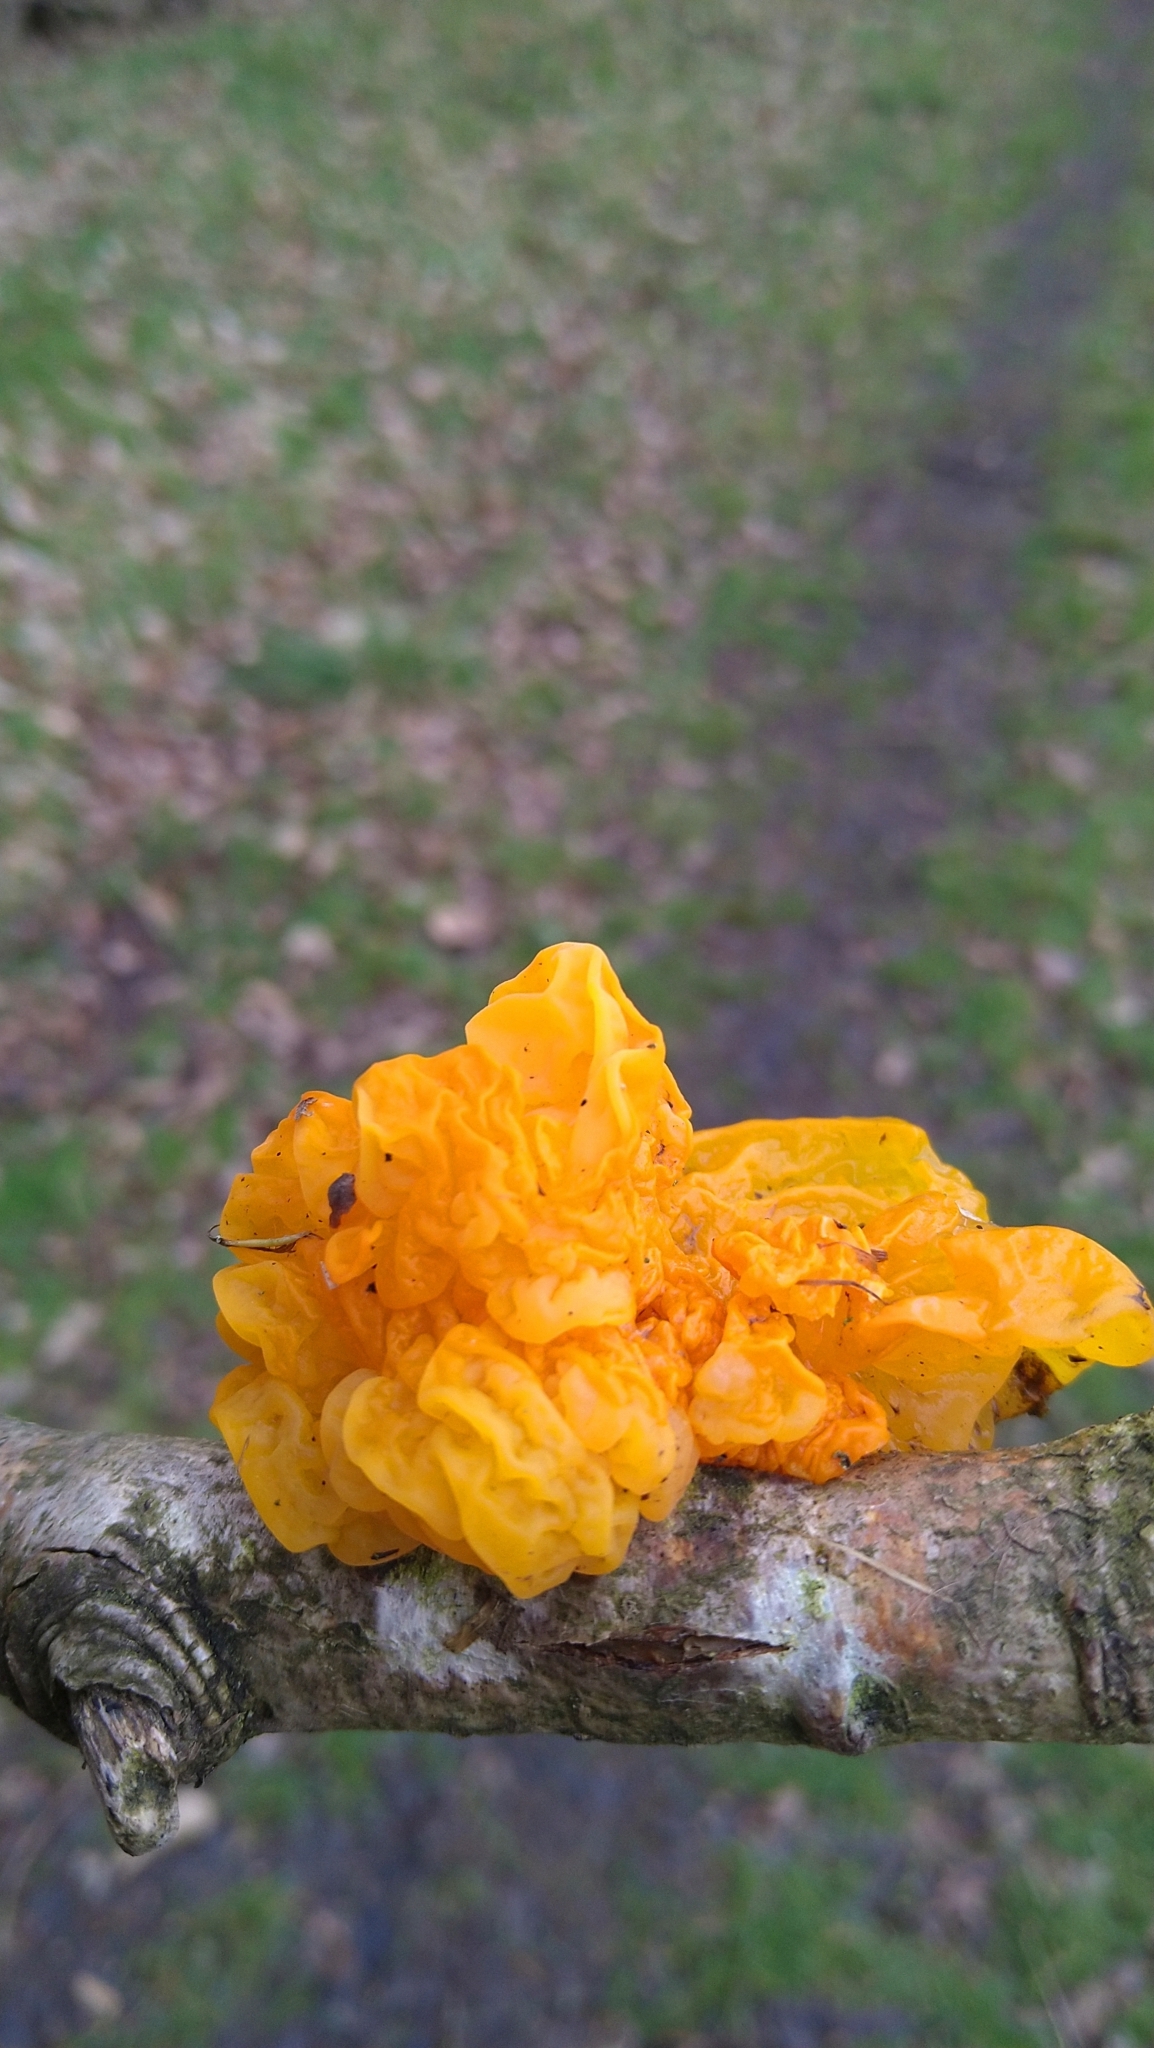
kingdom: Fungi
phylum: Basidiomycota
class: Tremellomycetes
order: Tremellales
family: Tremellaceae
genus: Tremella
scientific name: Tremella mesenterica
